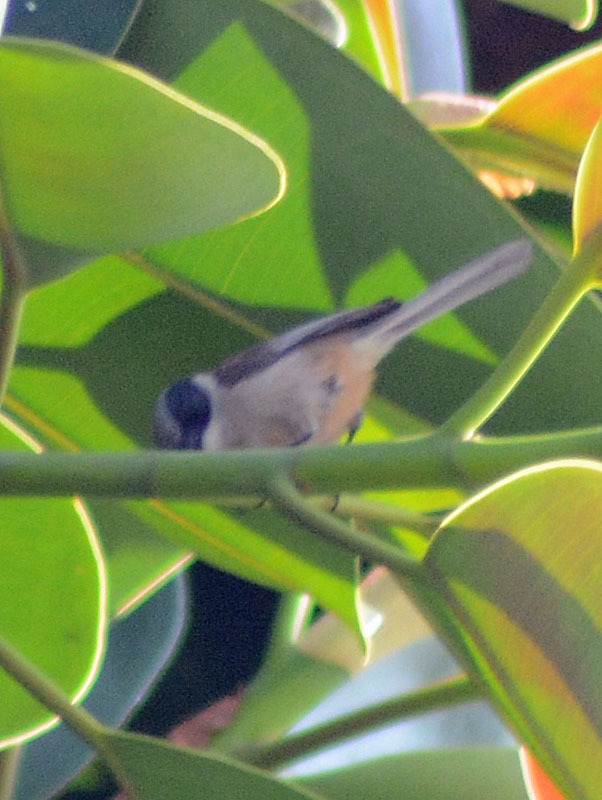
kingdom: Animalia
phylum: Chordata
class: Aves
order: Passeriformes
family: Aegithalidae
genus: Psaltriparus
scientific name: Psaltriparus minimus
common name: American bushtit
